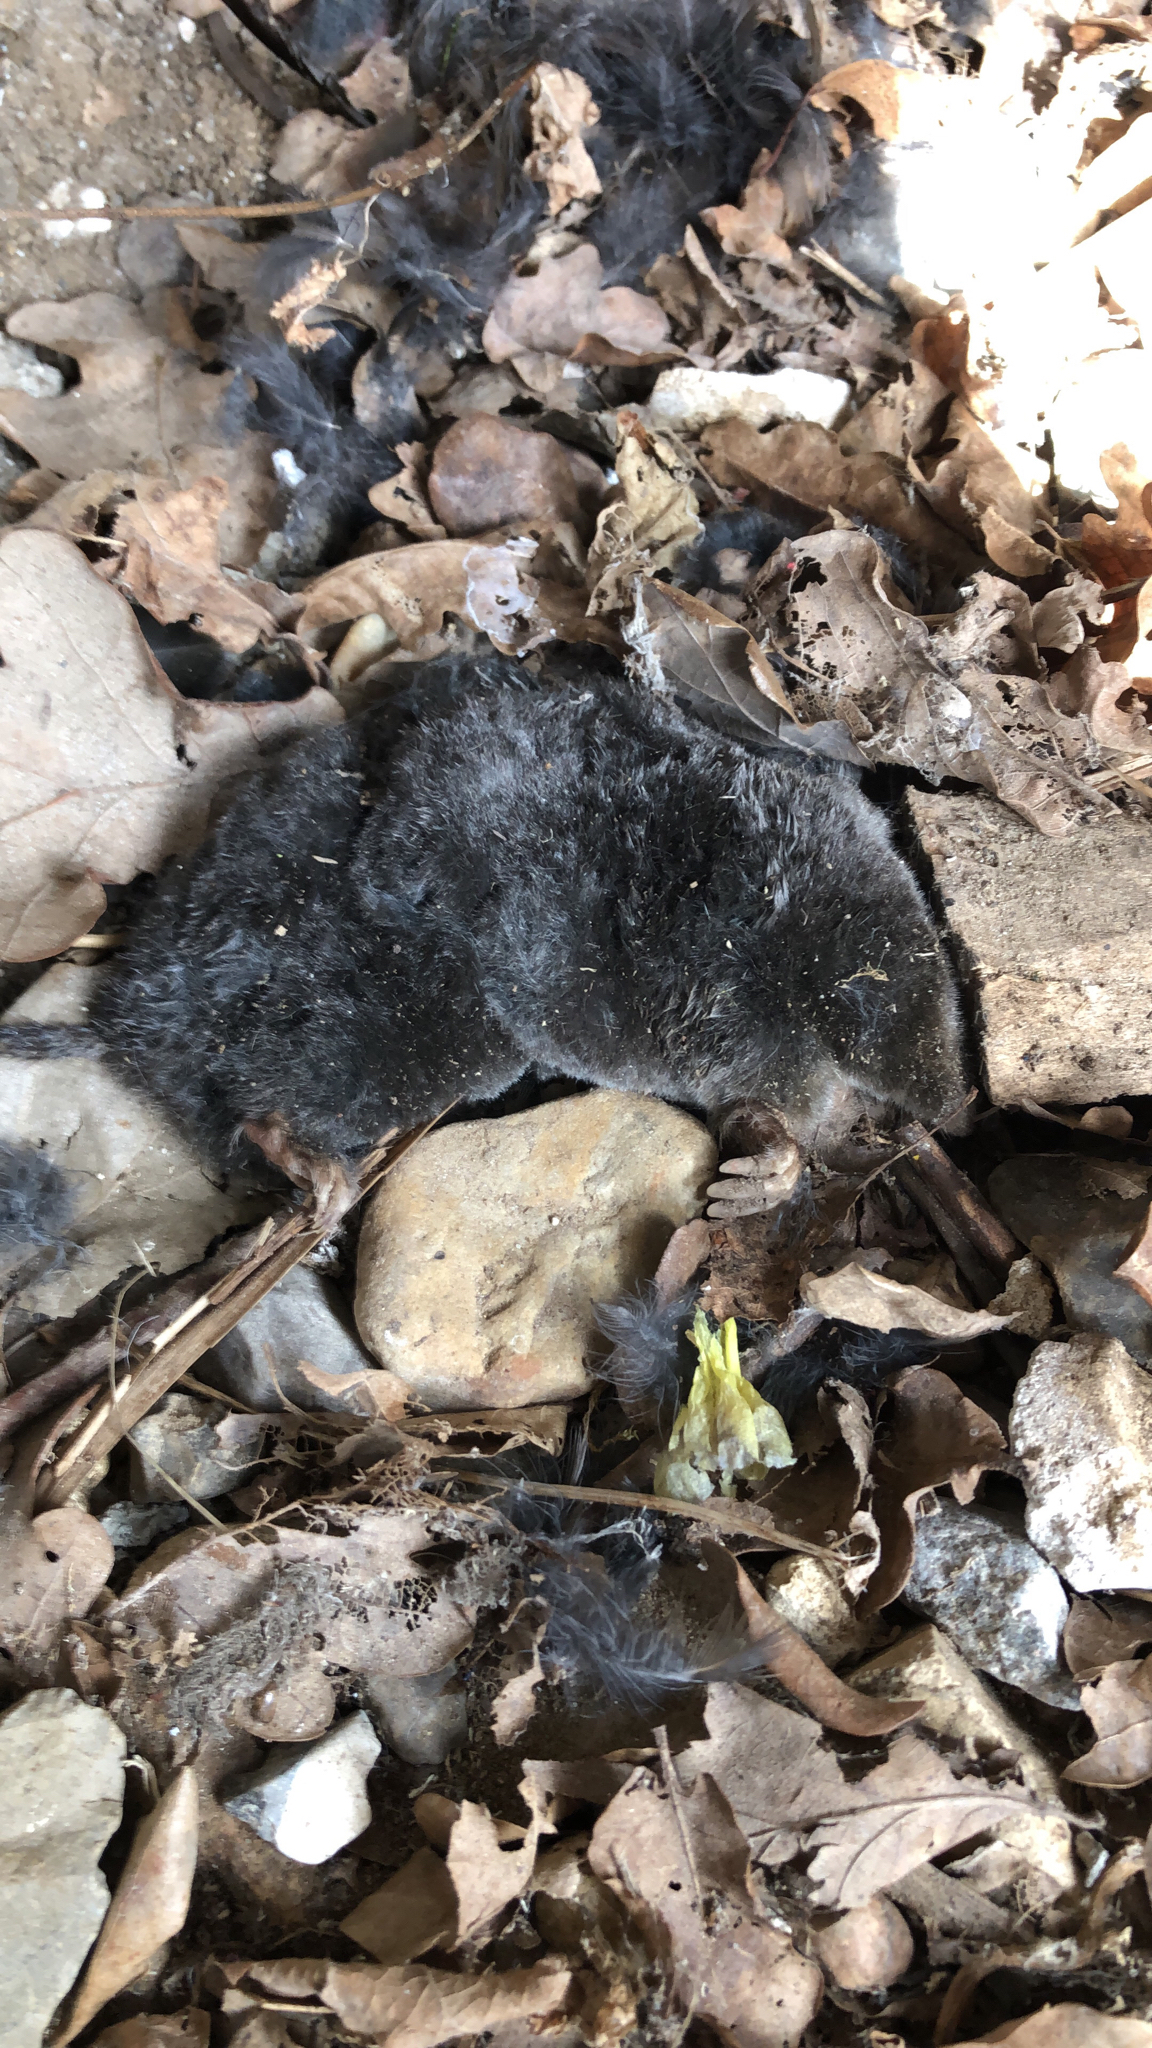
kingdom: Animalia
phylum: Chordata
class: Mammalia
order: Soricomorpha
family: Talpidae
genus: Talpa
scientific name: Talpa europaea
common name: European mole
